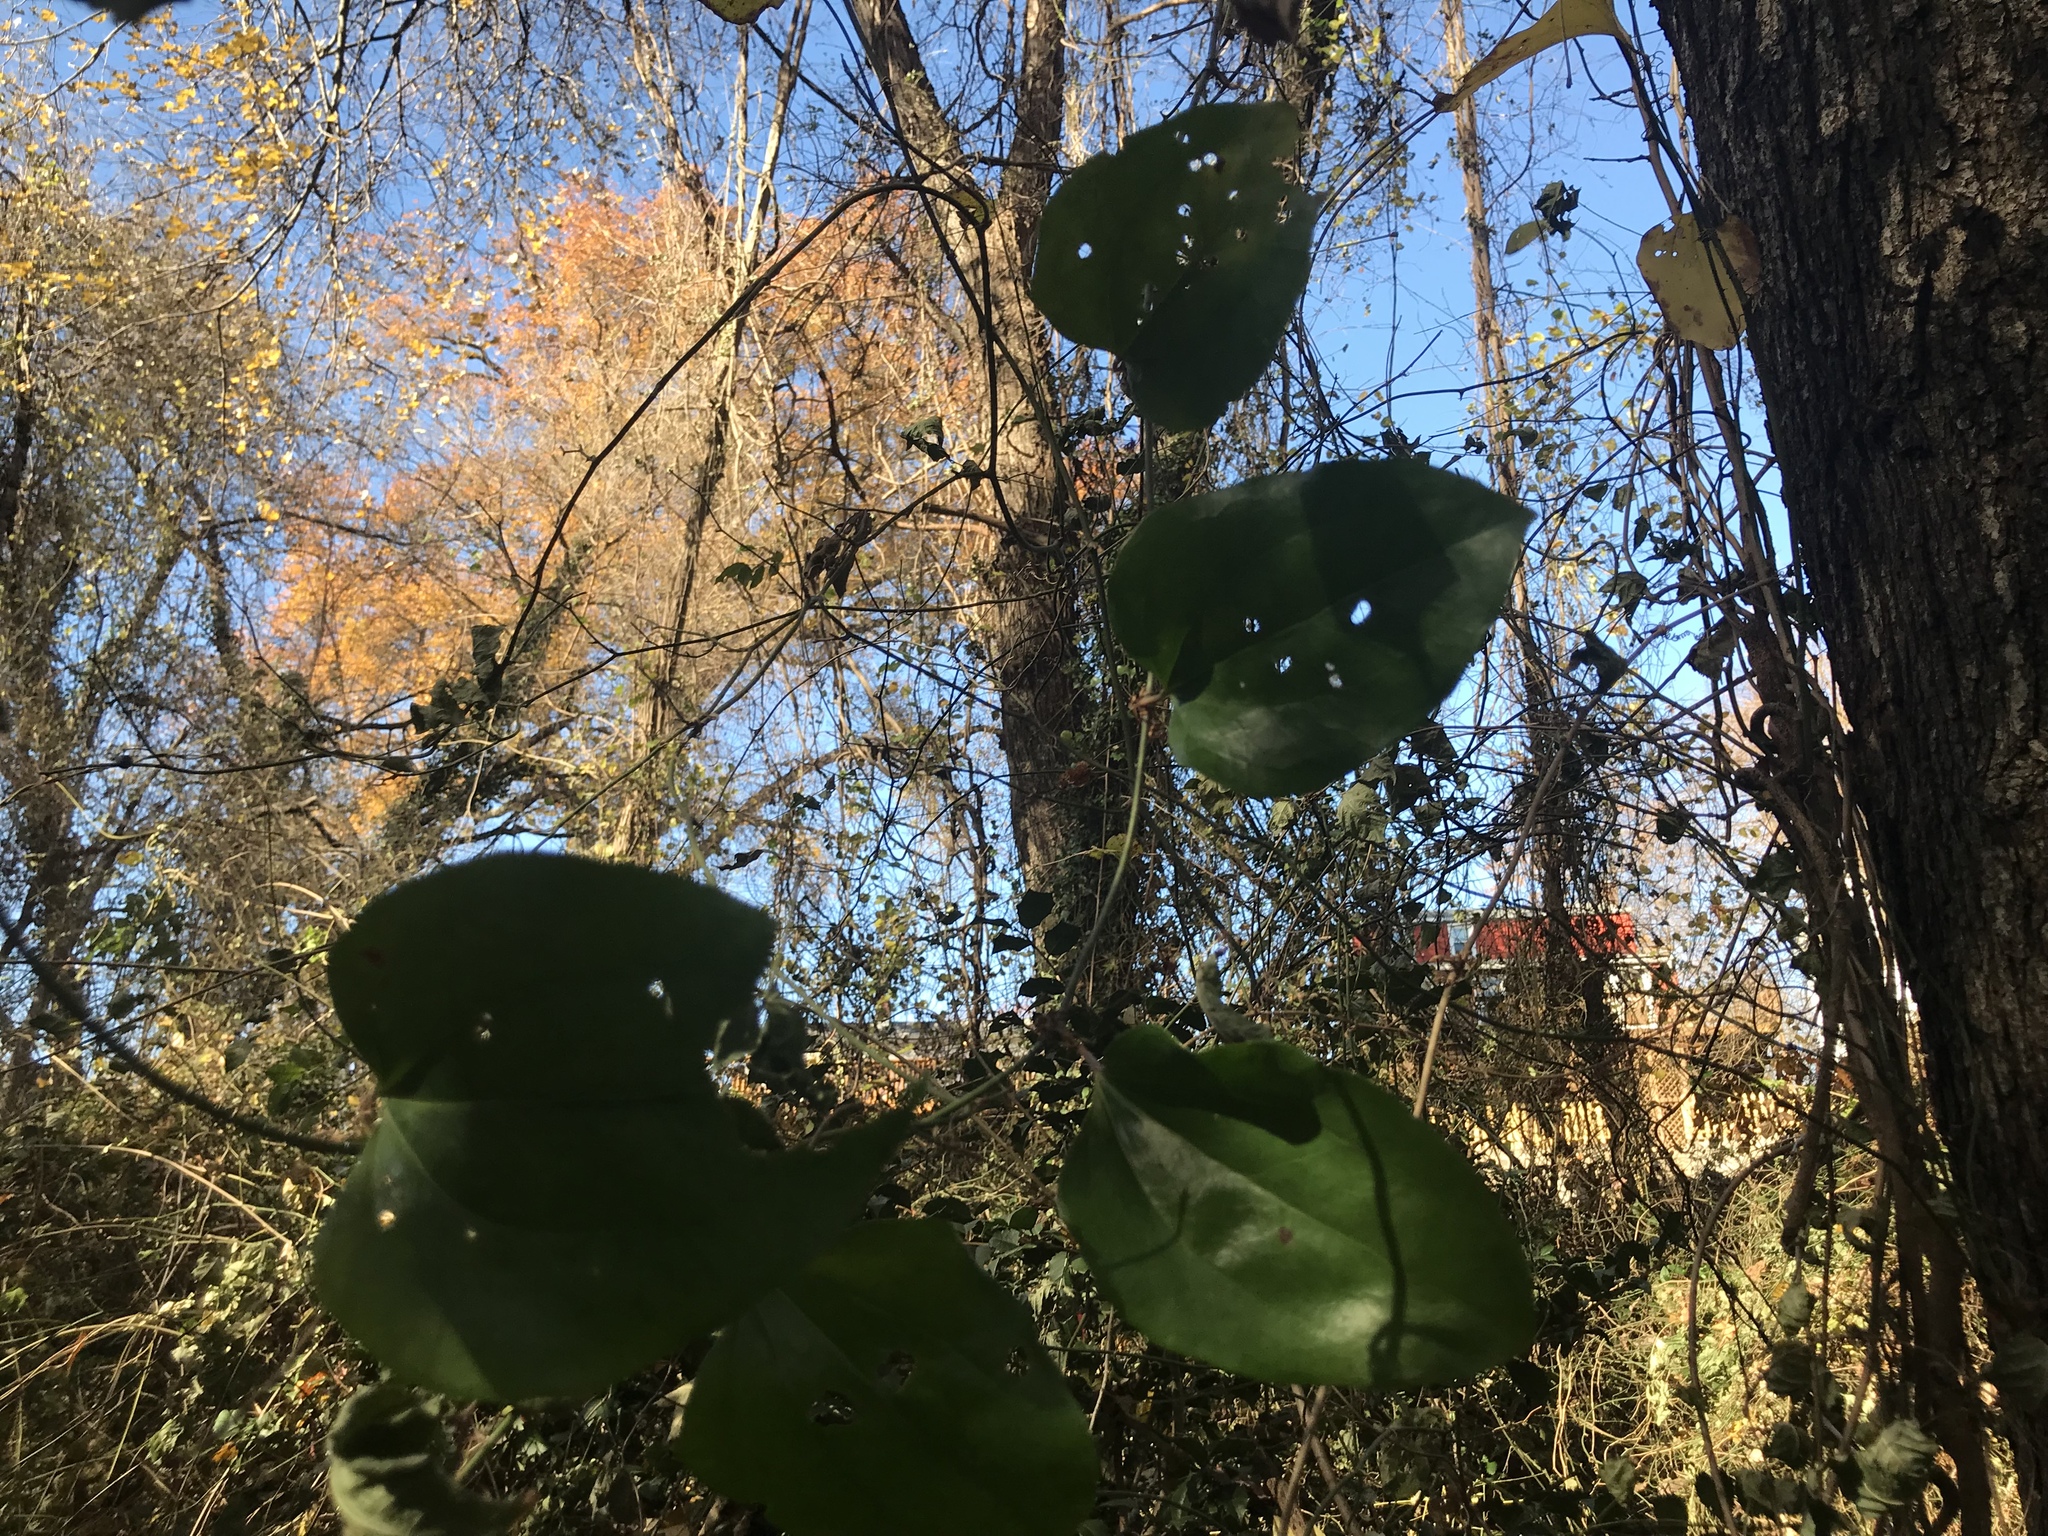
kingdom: Plantae
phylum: Tracheophyta
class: Liliopsida
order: Liliales
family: Smilacaceae
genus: Smilax
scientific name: Smilax rotundifolia
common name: Bullbriar
